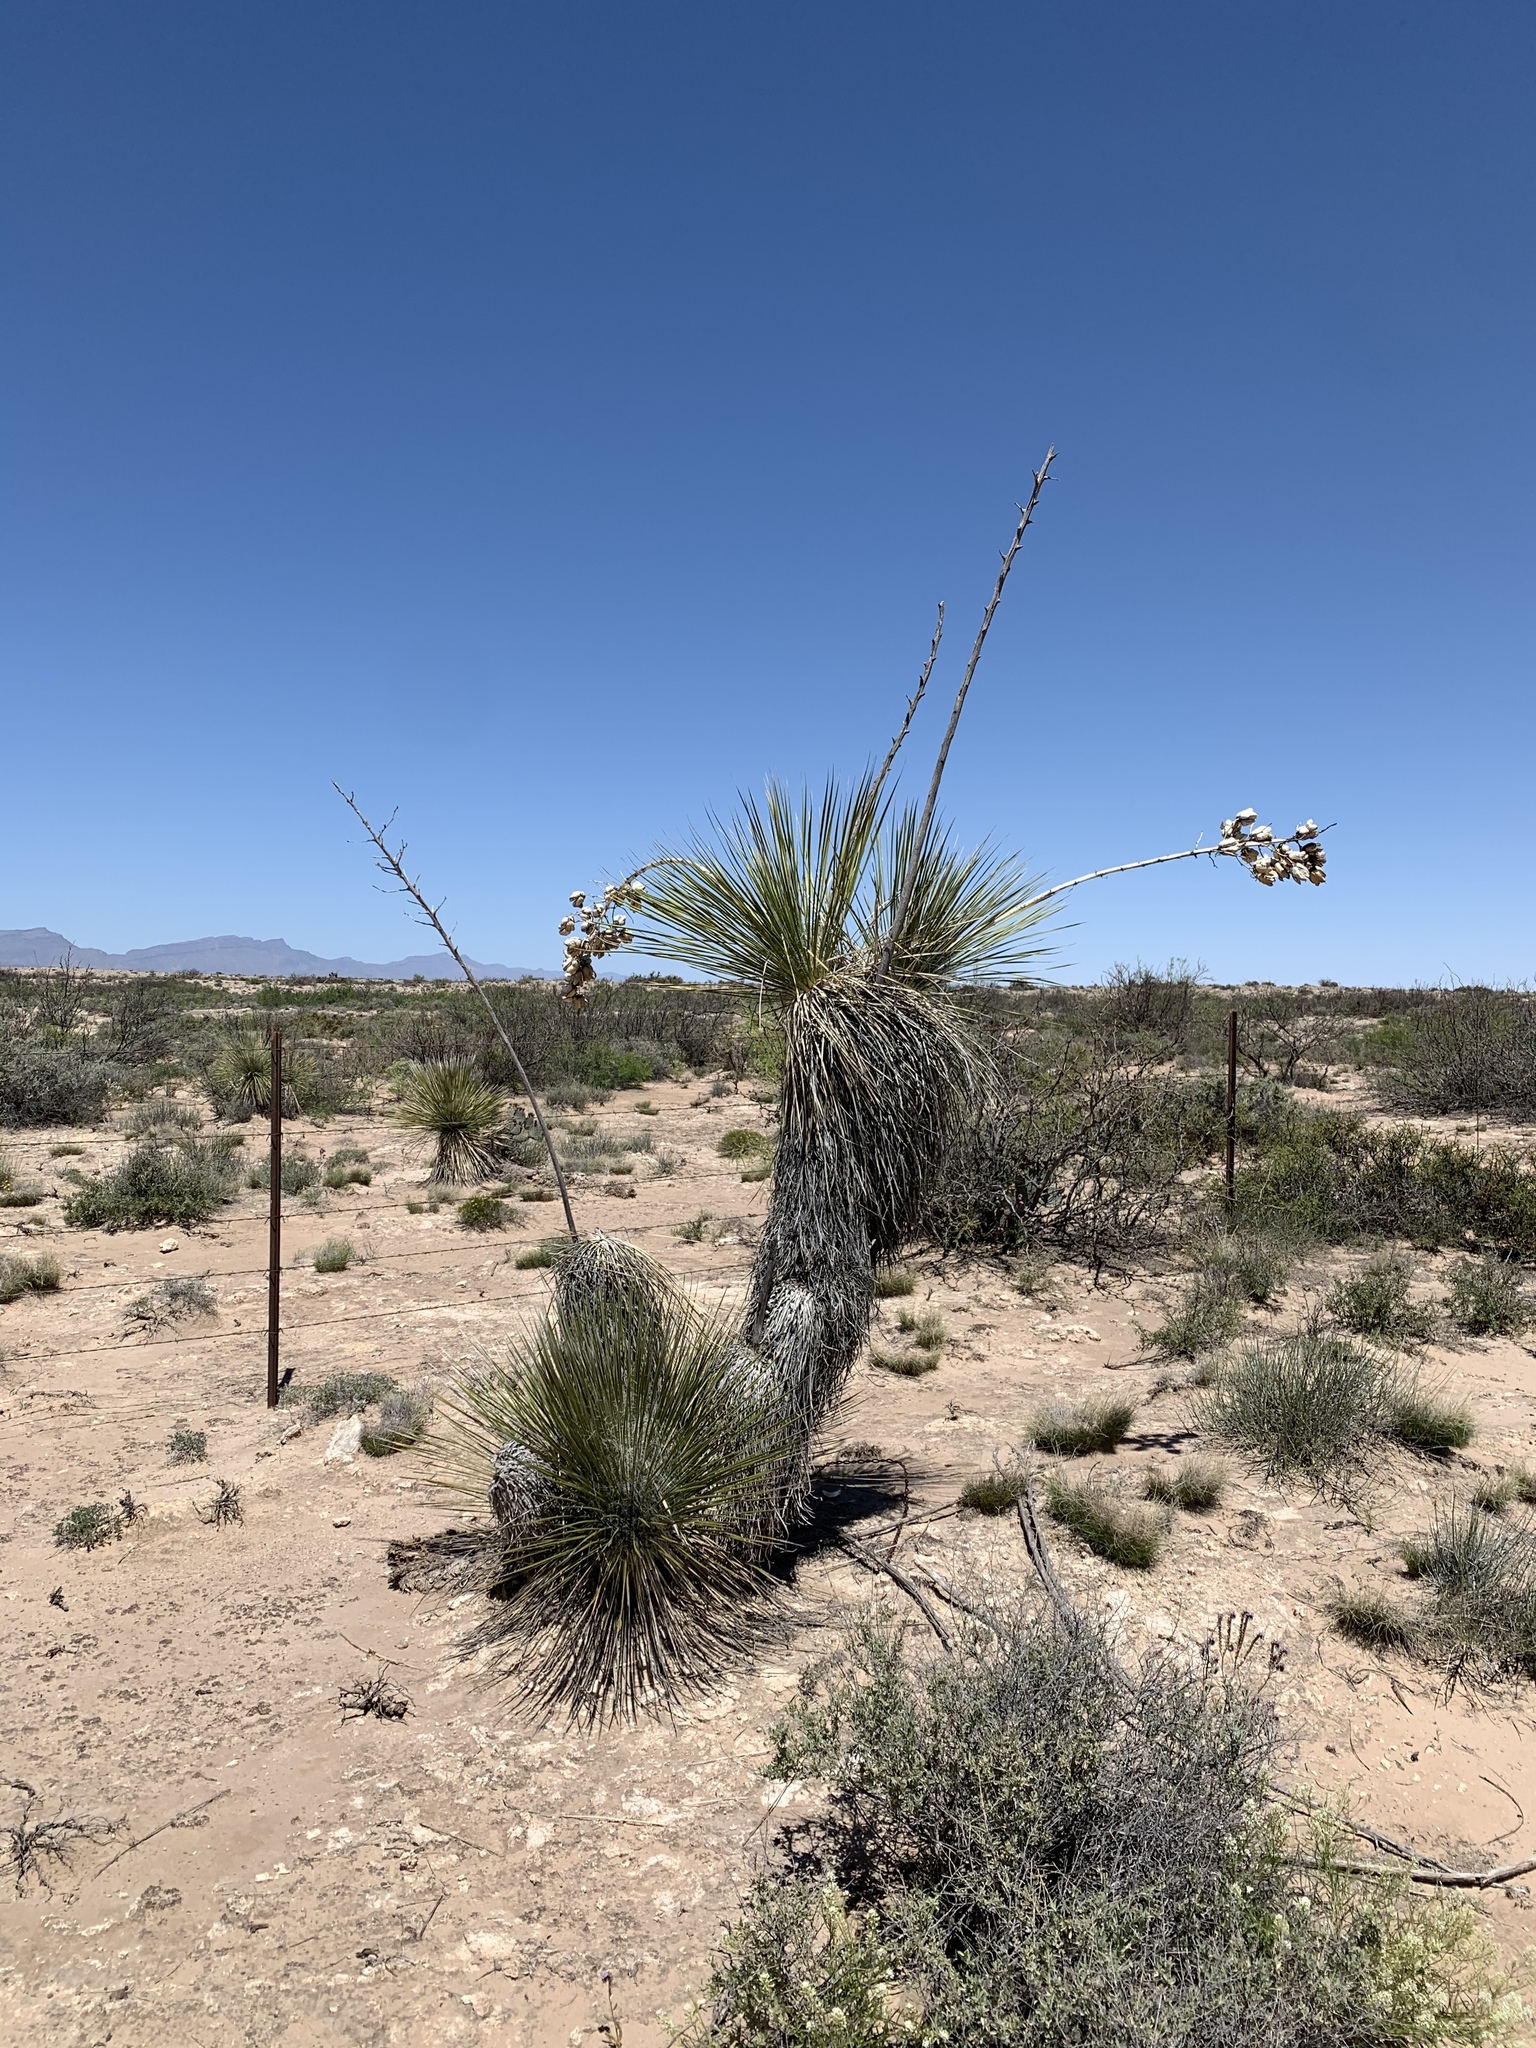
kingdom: Plantae
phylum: Tracheophyta
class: Liliopsida
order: Asparagales
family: Asparagaceae
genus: Yucca
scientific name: Yucca elata
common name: Palmella
